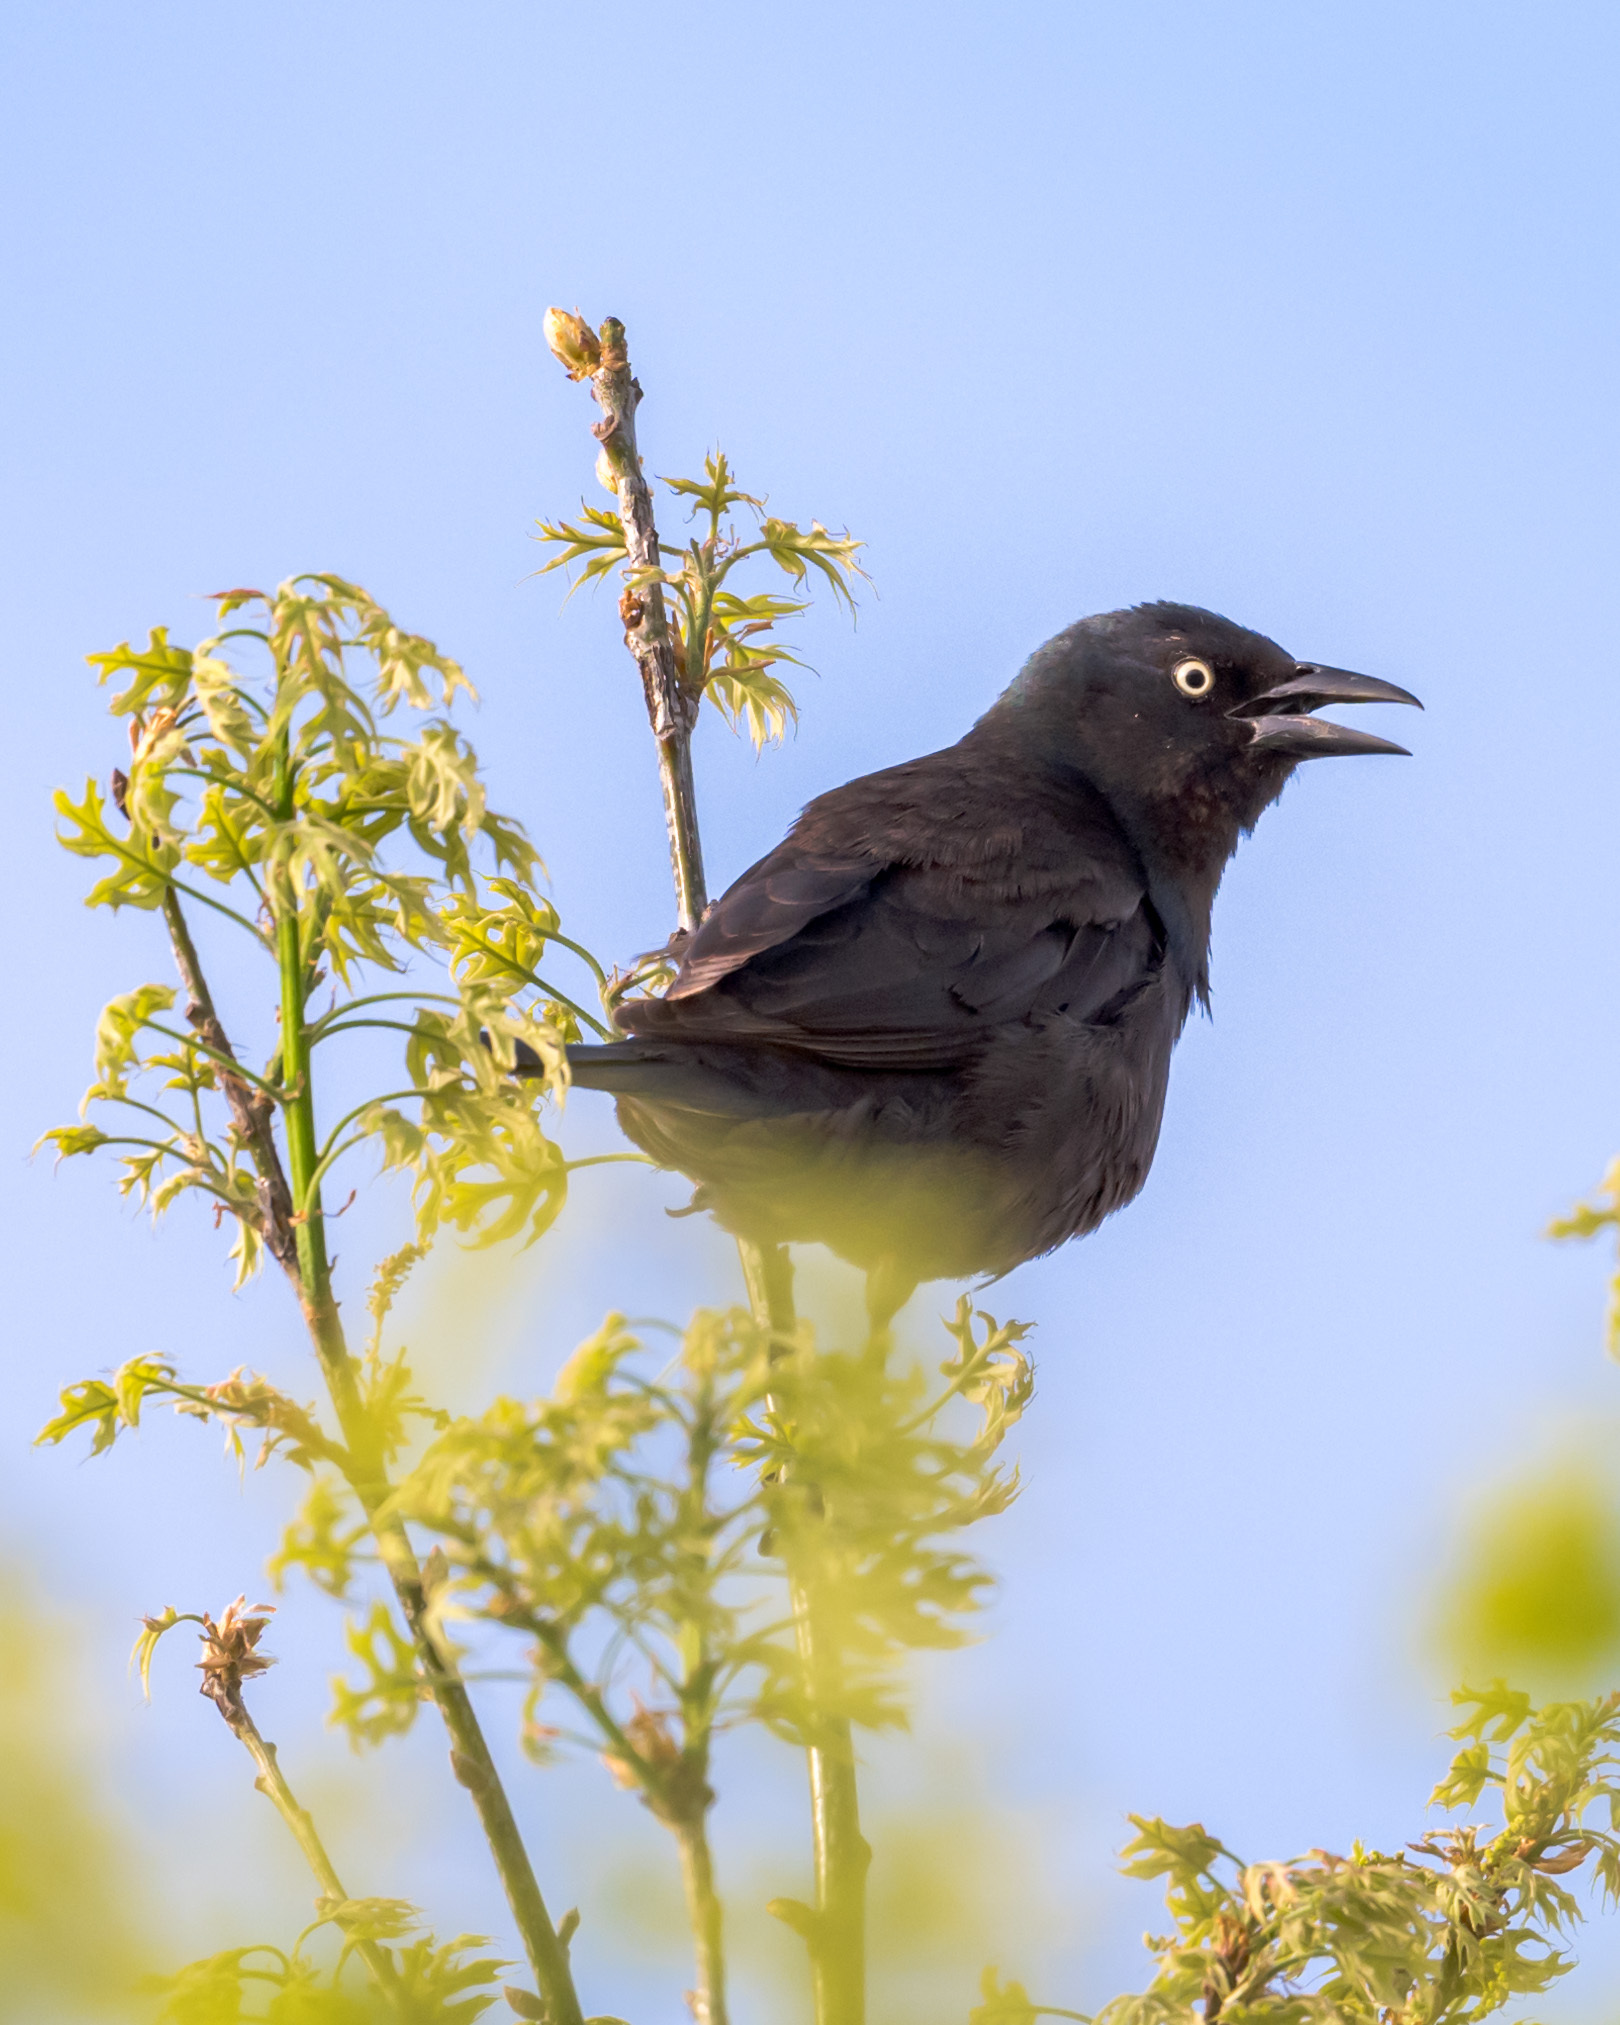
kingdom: Animalia
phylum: Chordata
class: Aves
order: Passeriformes
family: Icteridae
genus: Euphagus
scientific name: Euphagus cyanocephalus
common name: Brewer's blackbird
